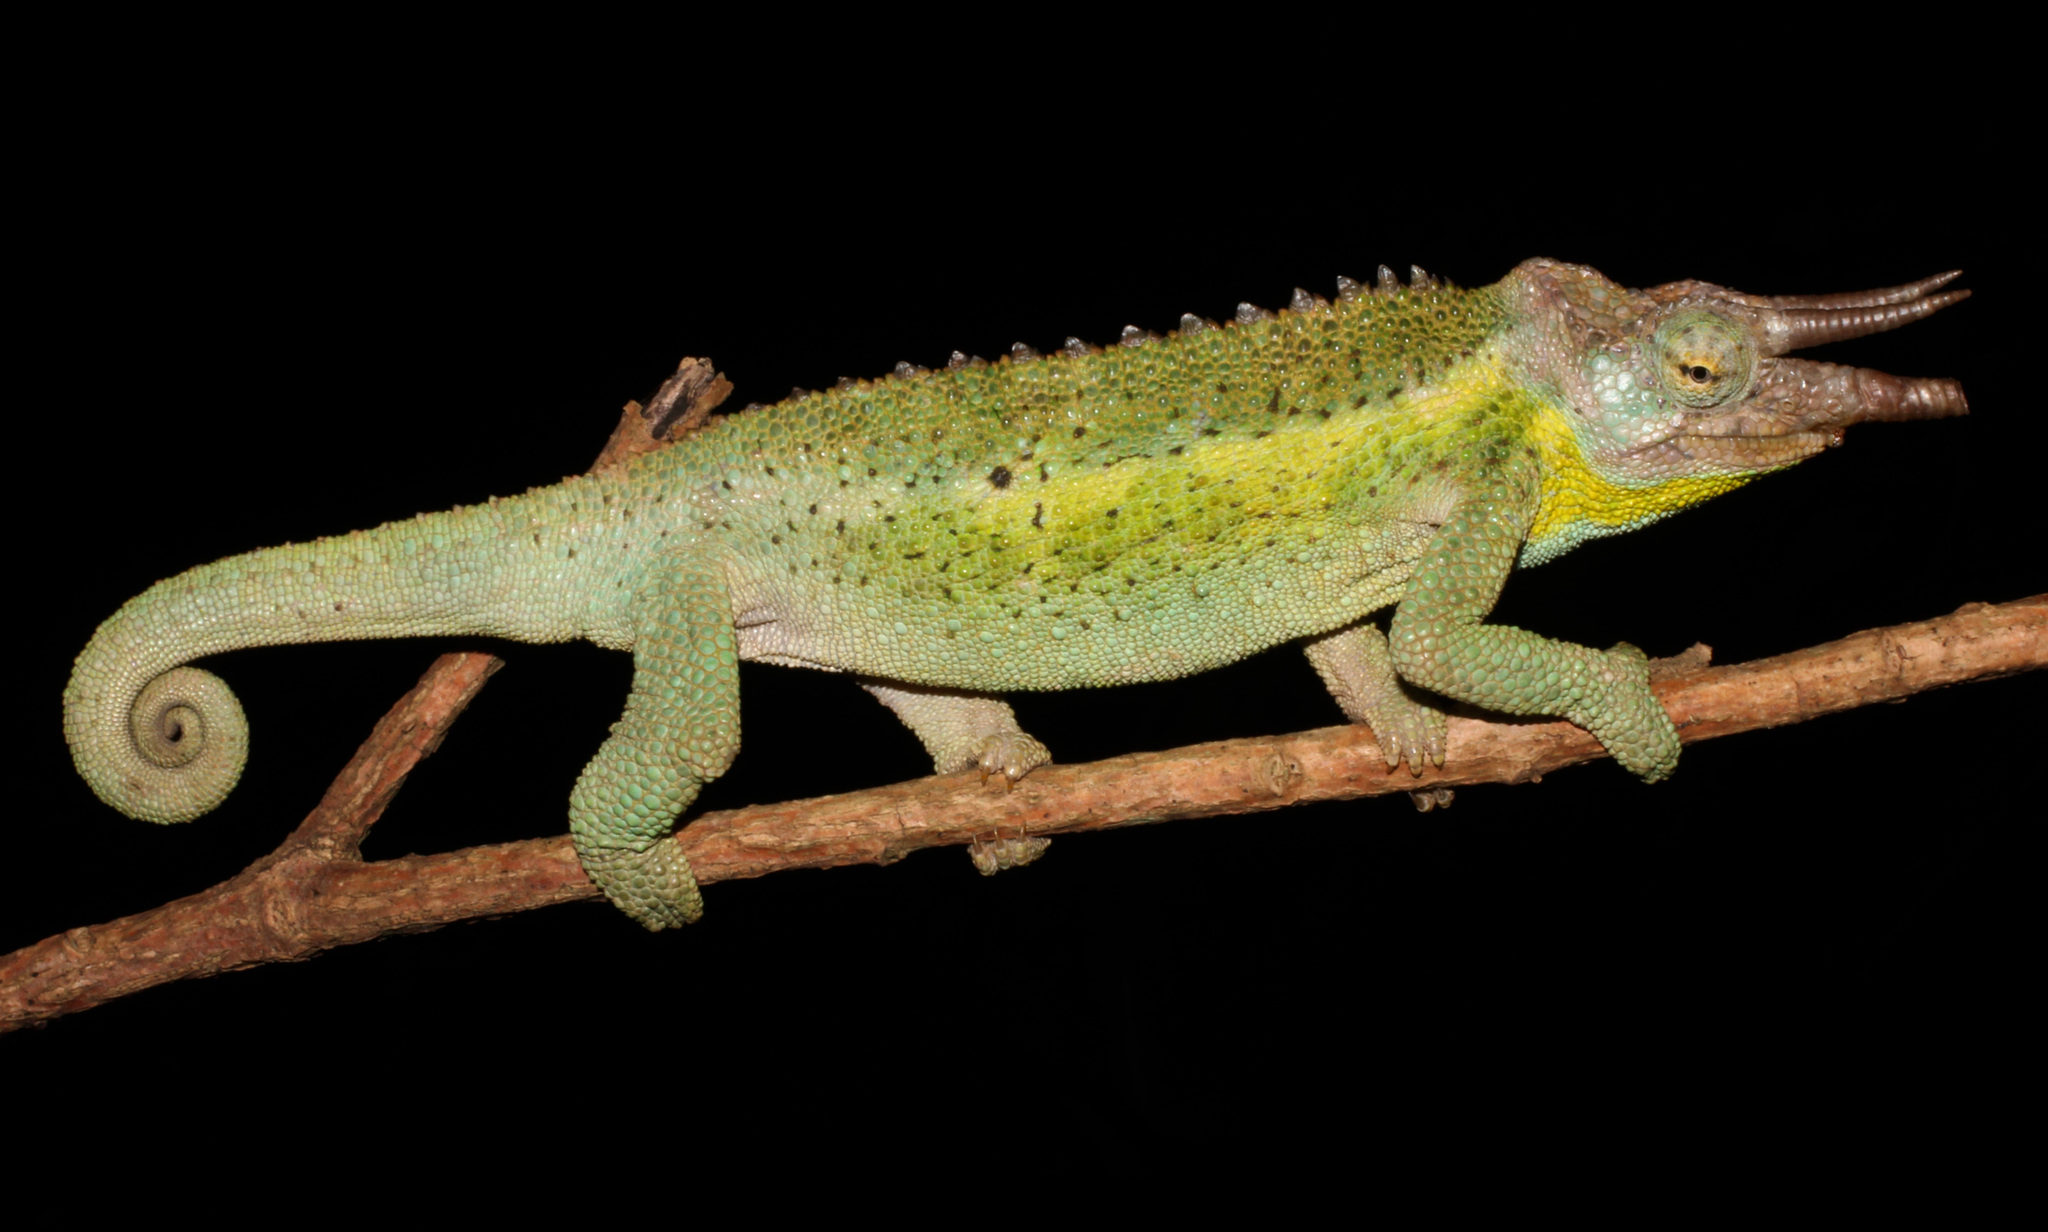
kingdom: Animalia
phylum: Chordata
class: Squamata
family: Chamaeleonidae
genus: Trioceros
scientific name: Trioceros jacksonii
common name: Jackson's chameleon
